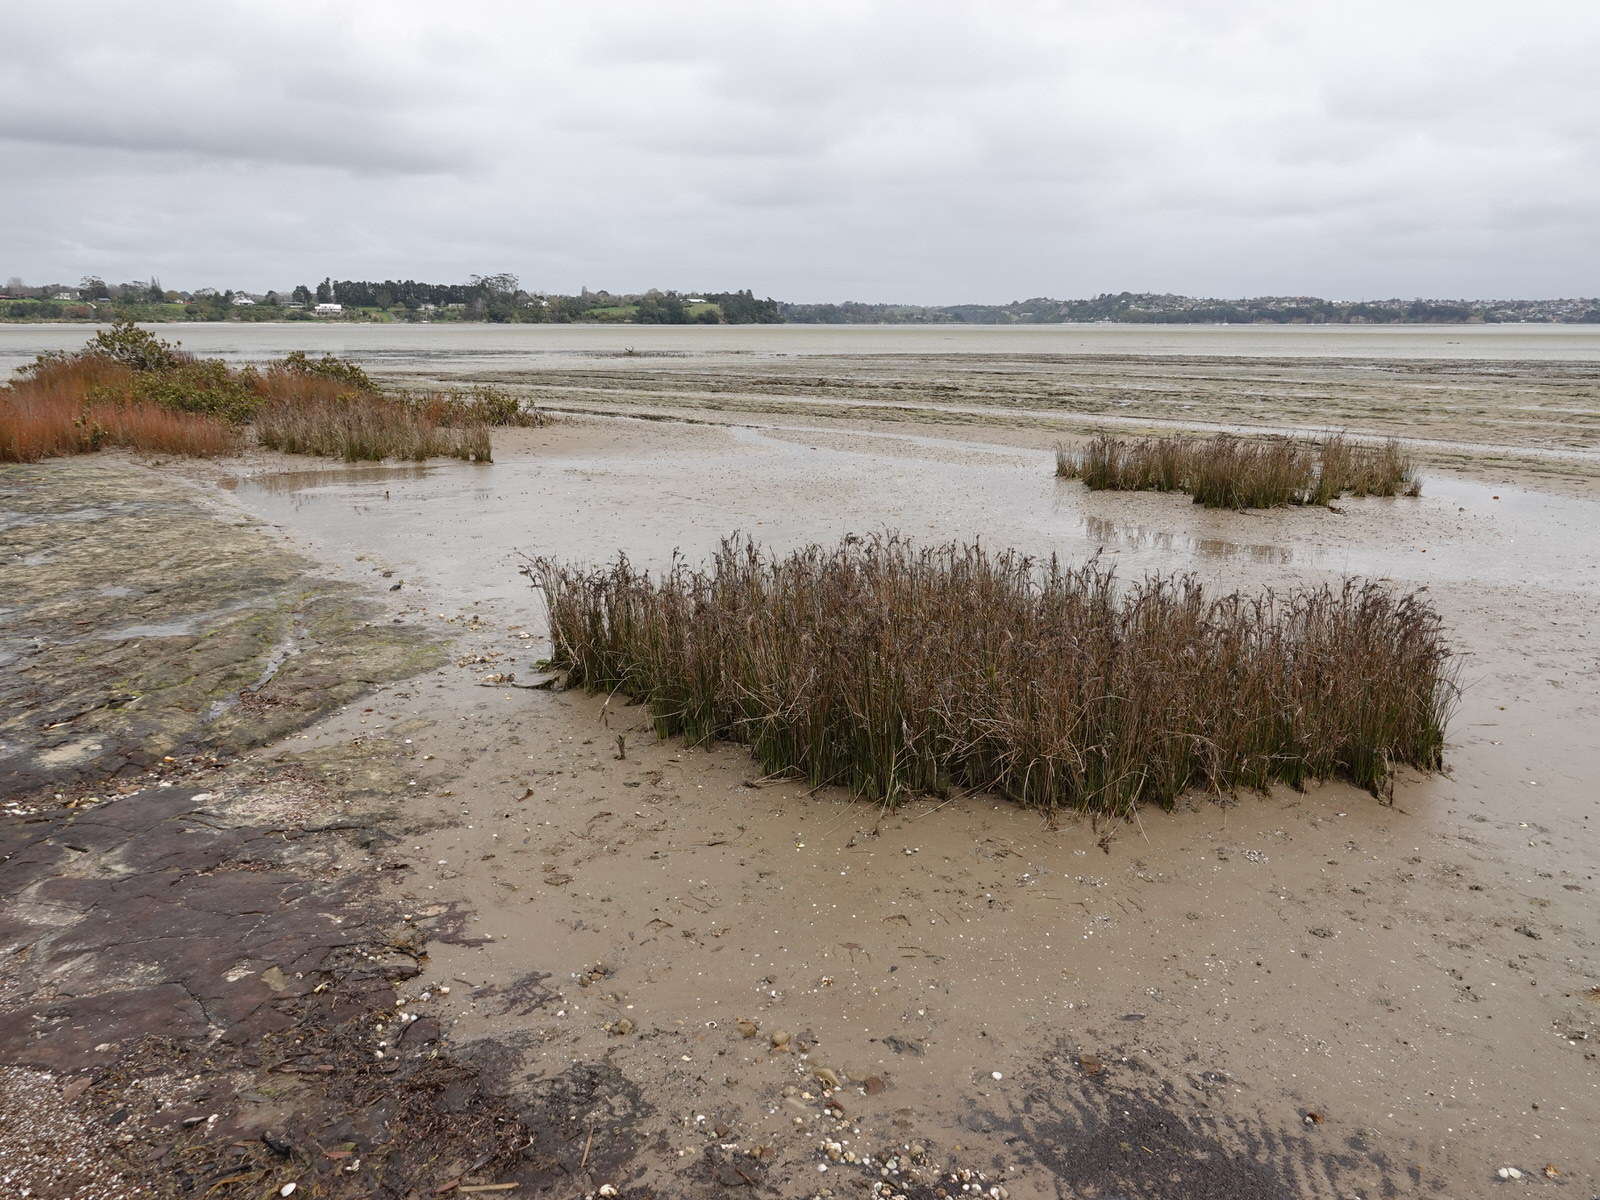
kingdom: Plantae
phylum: Tracheophyta
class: Liliopsida
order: Poales
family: Juncaceae
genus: Juncus
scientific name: Juncus kraussii
